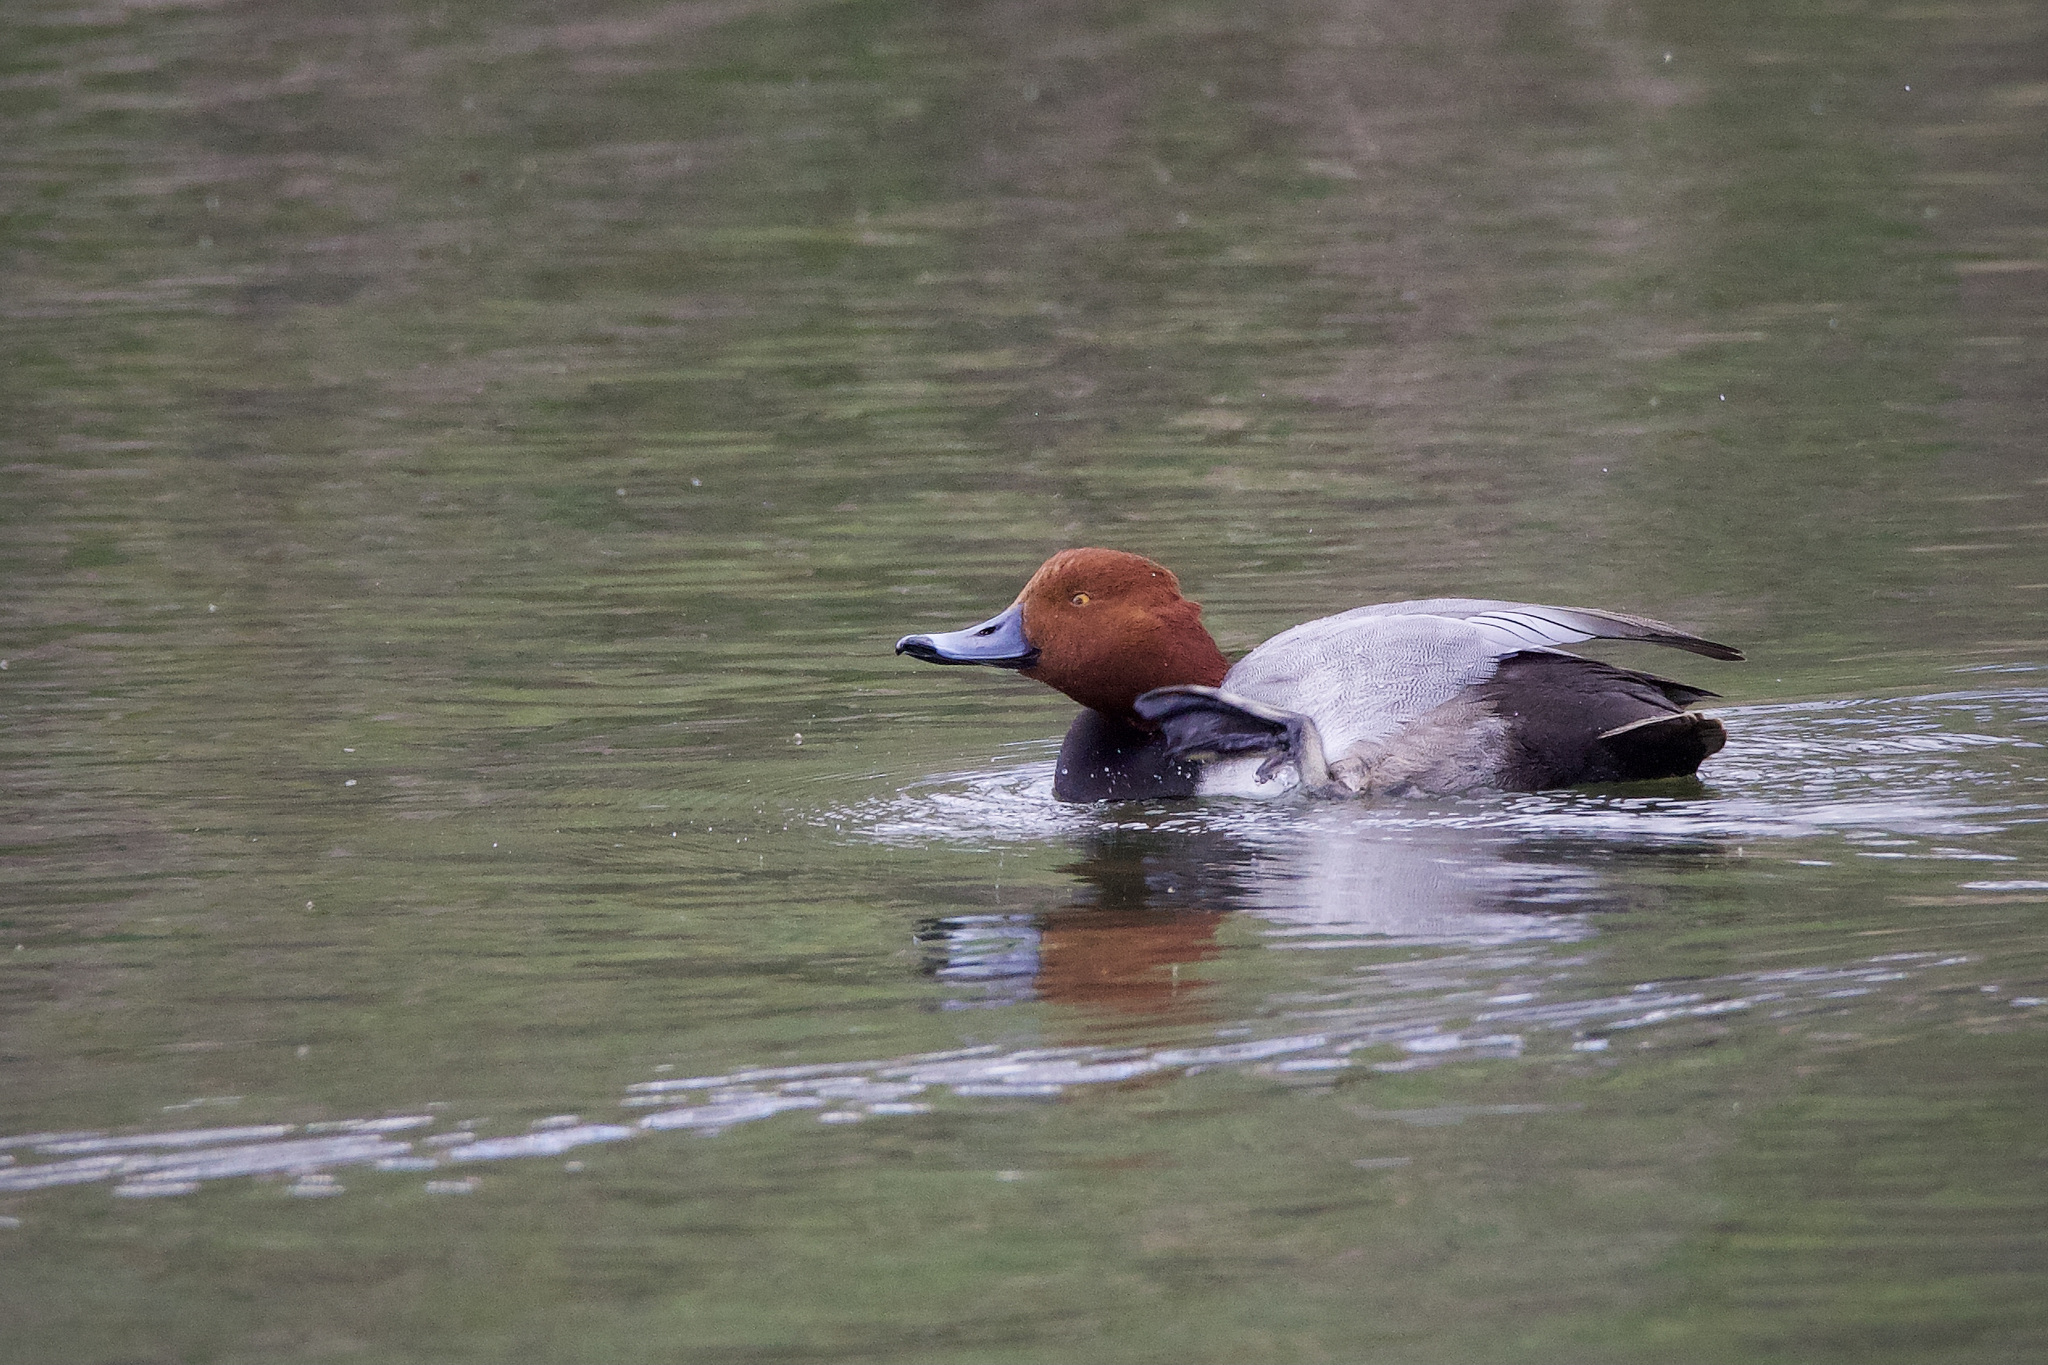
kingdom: Animalia
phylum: Chordata
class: Aves
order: Anseriformes
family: Anatidae
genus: Aythya
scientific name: Aythya americana
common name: Redhead
